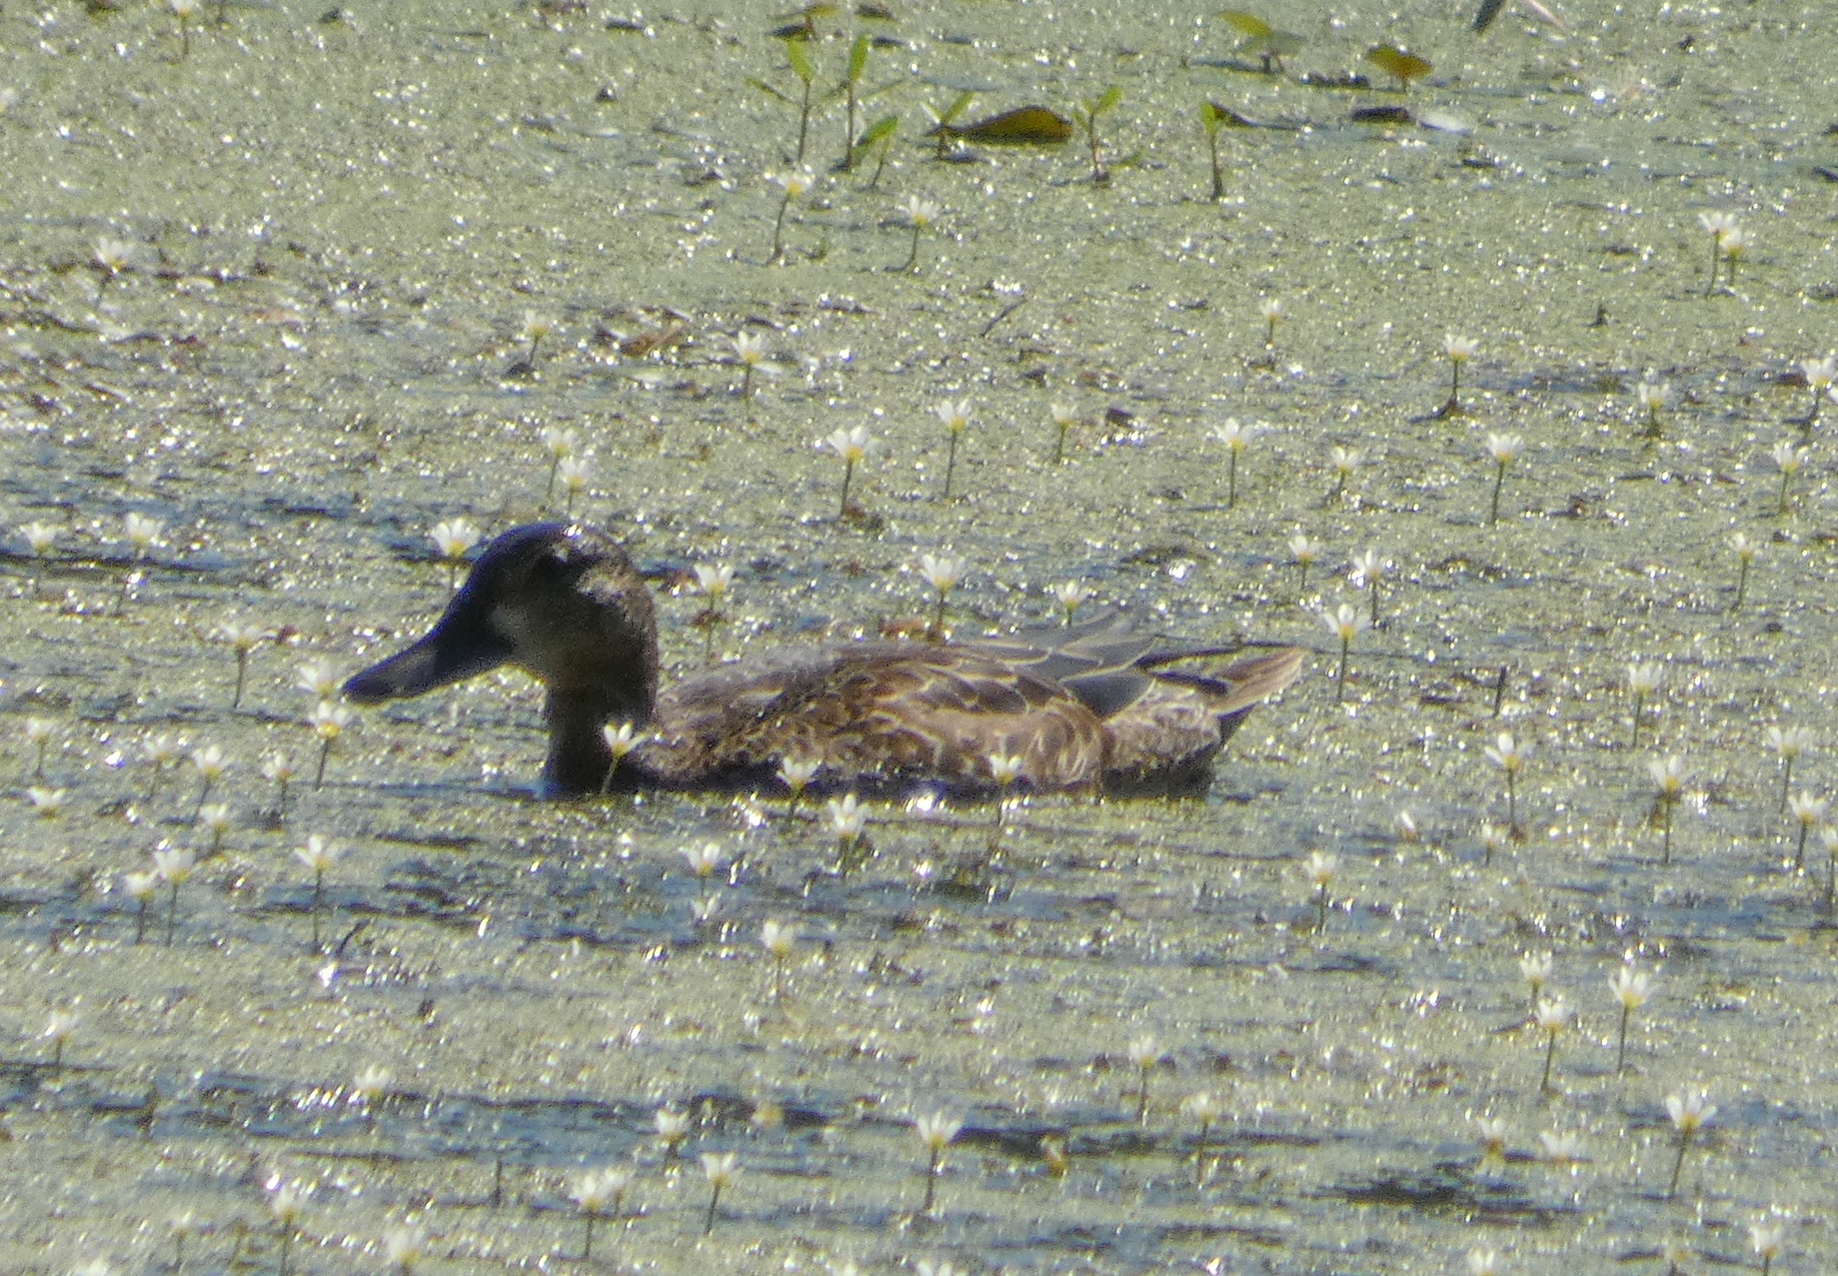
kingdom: Animalia
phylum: Chordata
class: Aves
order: Anseriformes
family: Anatidae
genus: Spatula
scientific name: Spatula discors
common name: Blue-winged teal
